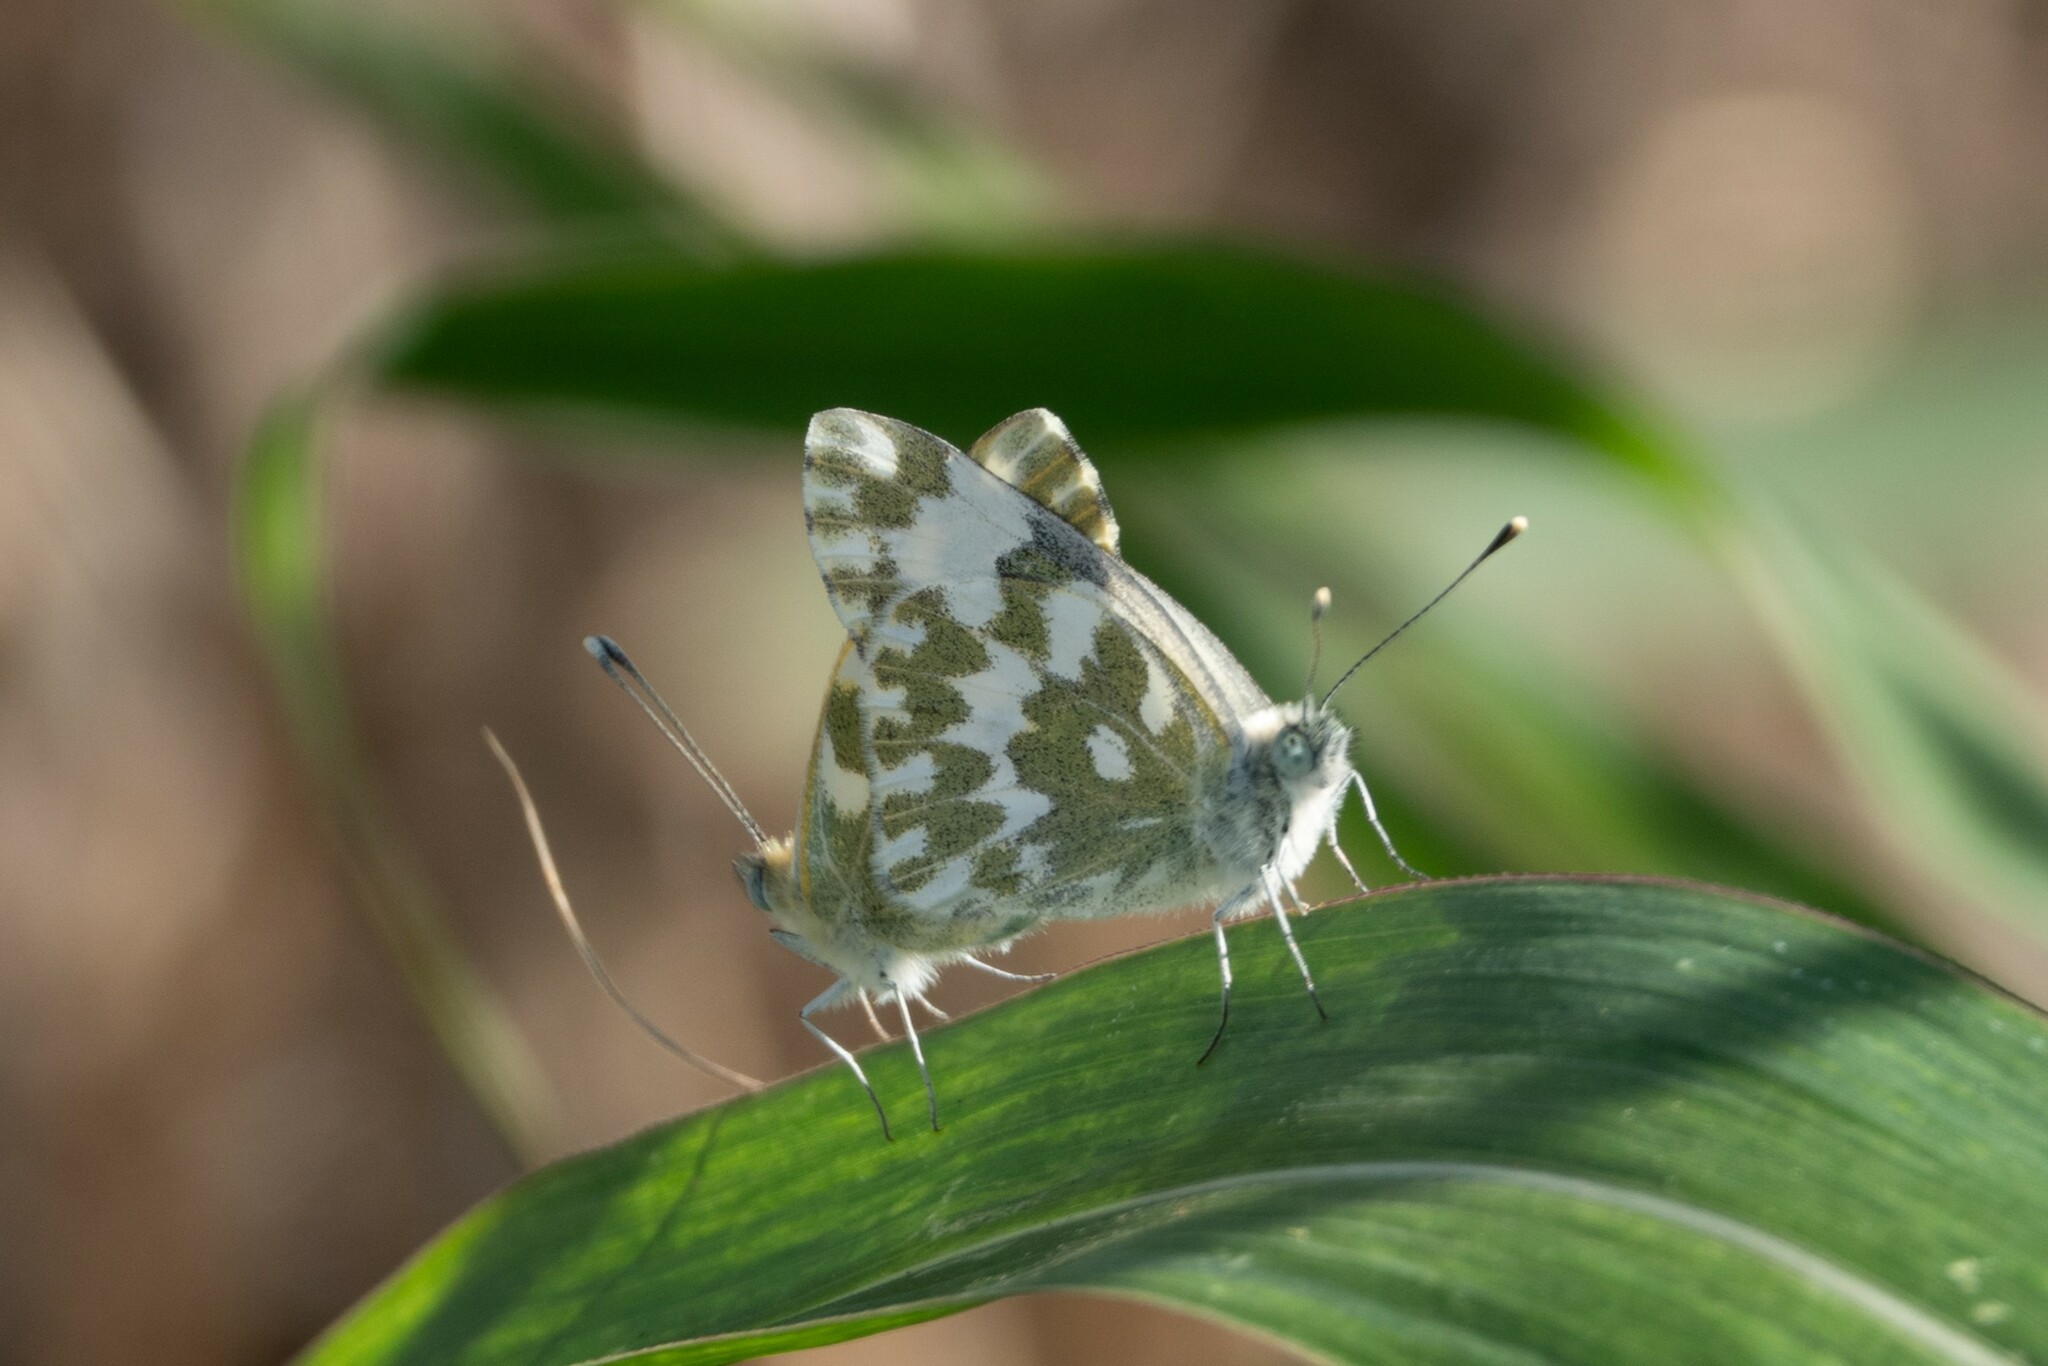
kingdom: Animalia
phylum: Arthropoda
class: Insecta
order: Lepidoptera
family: Pieridae
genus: Pontia
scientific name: Pontia edusa
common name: Eastern bath white
